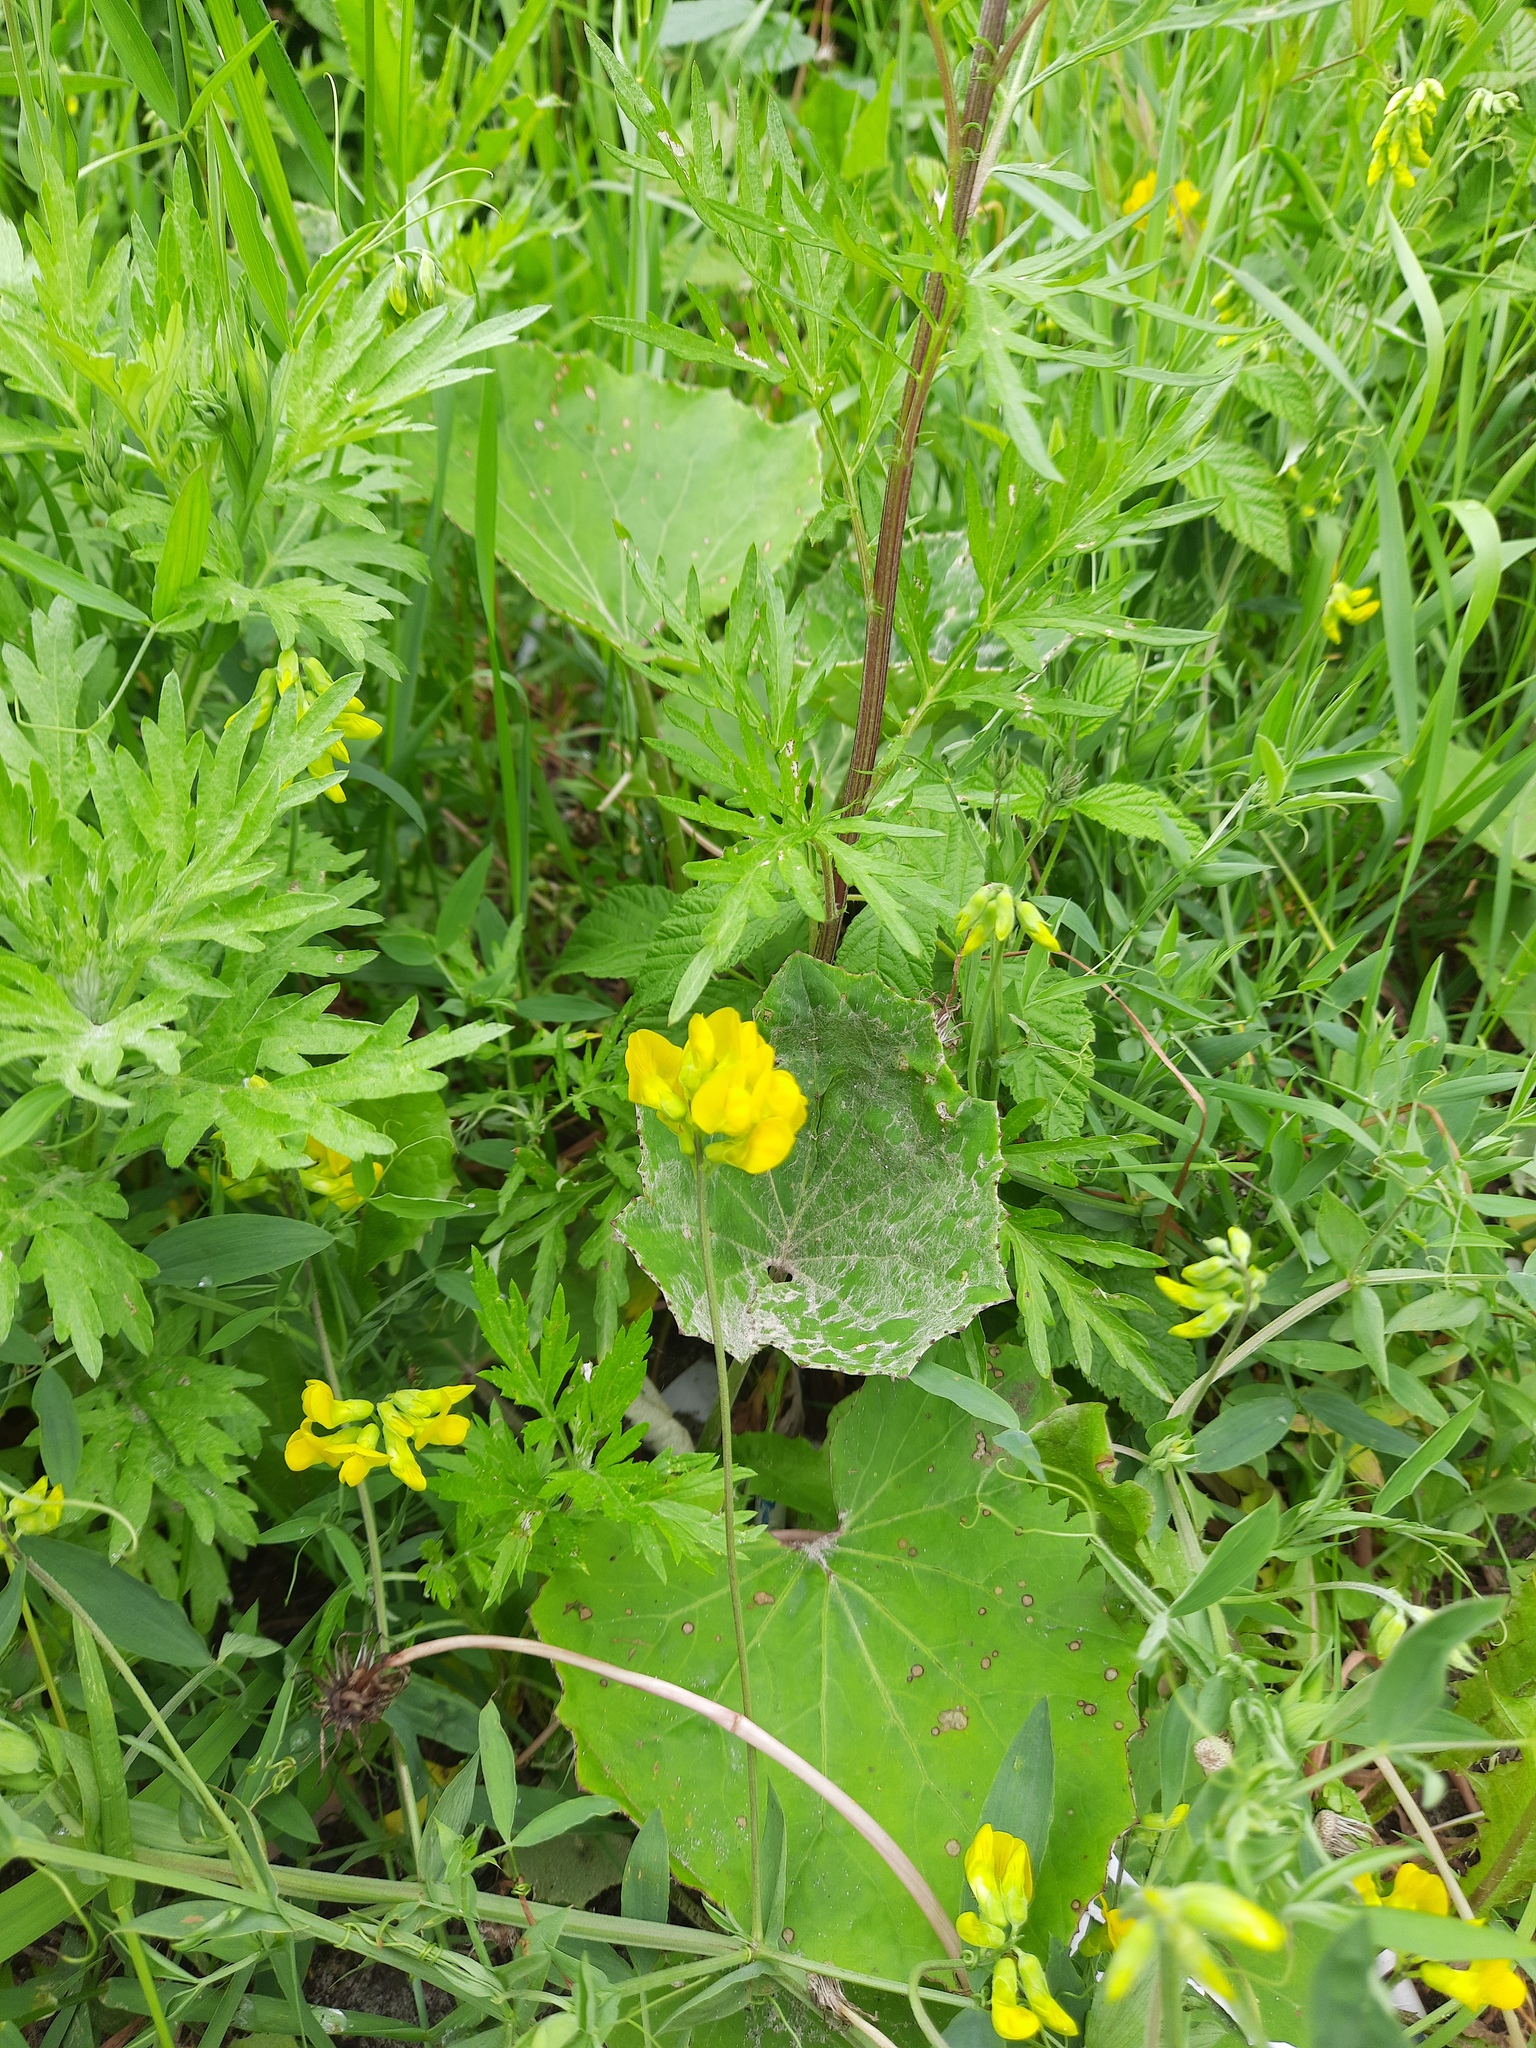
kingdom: Plantae
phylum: Tracheophyta
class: Magnoliopsida
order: Fabales
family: Fabaceae
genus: Lathyrus
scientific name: Lathyrus pratensis
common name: Meadow vetchling
